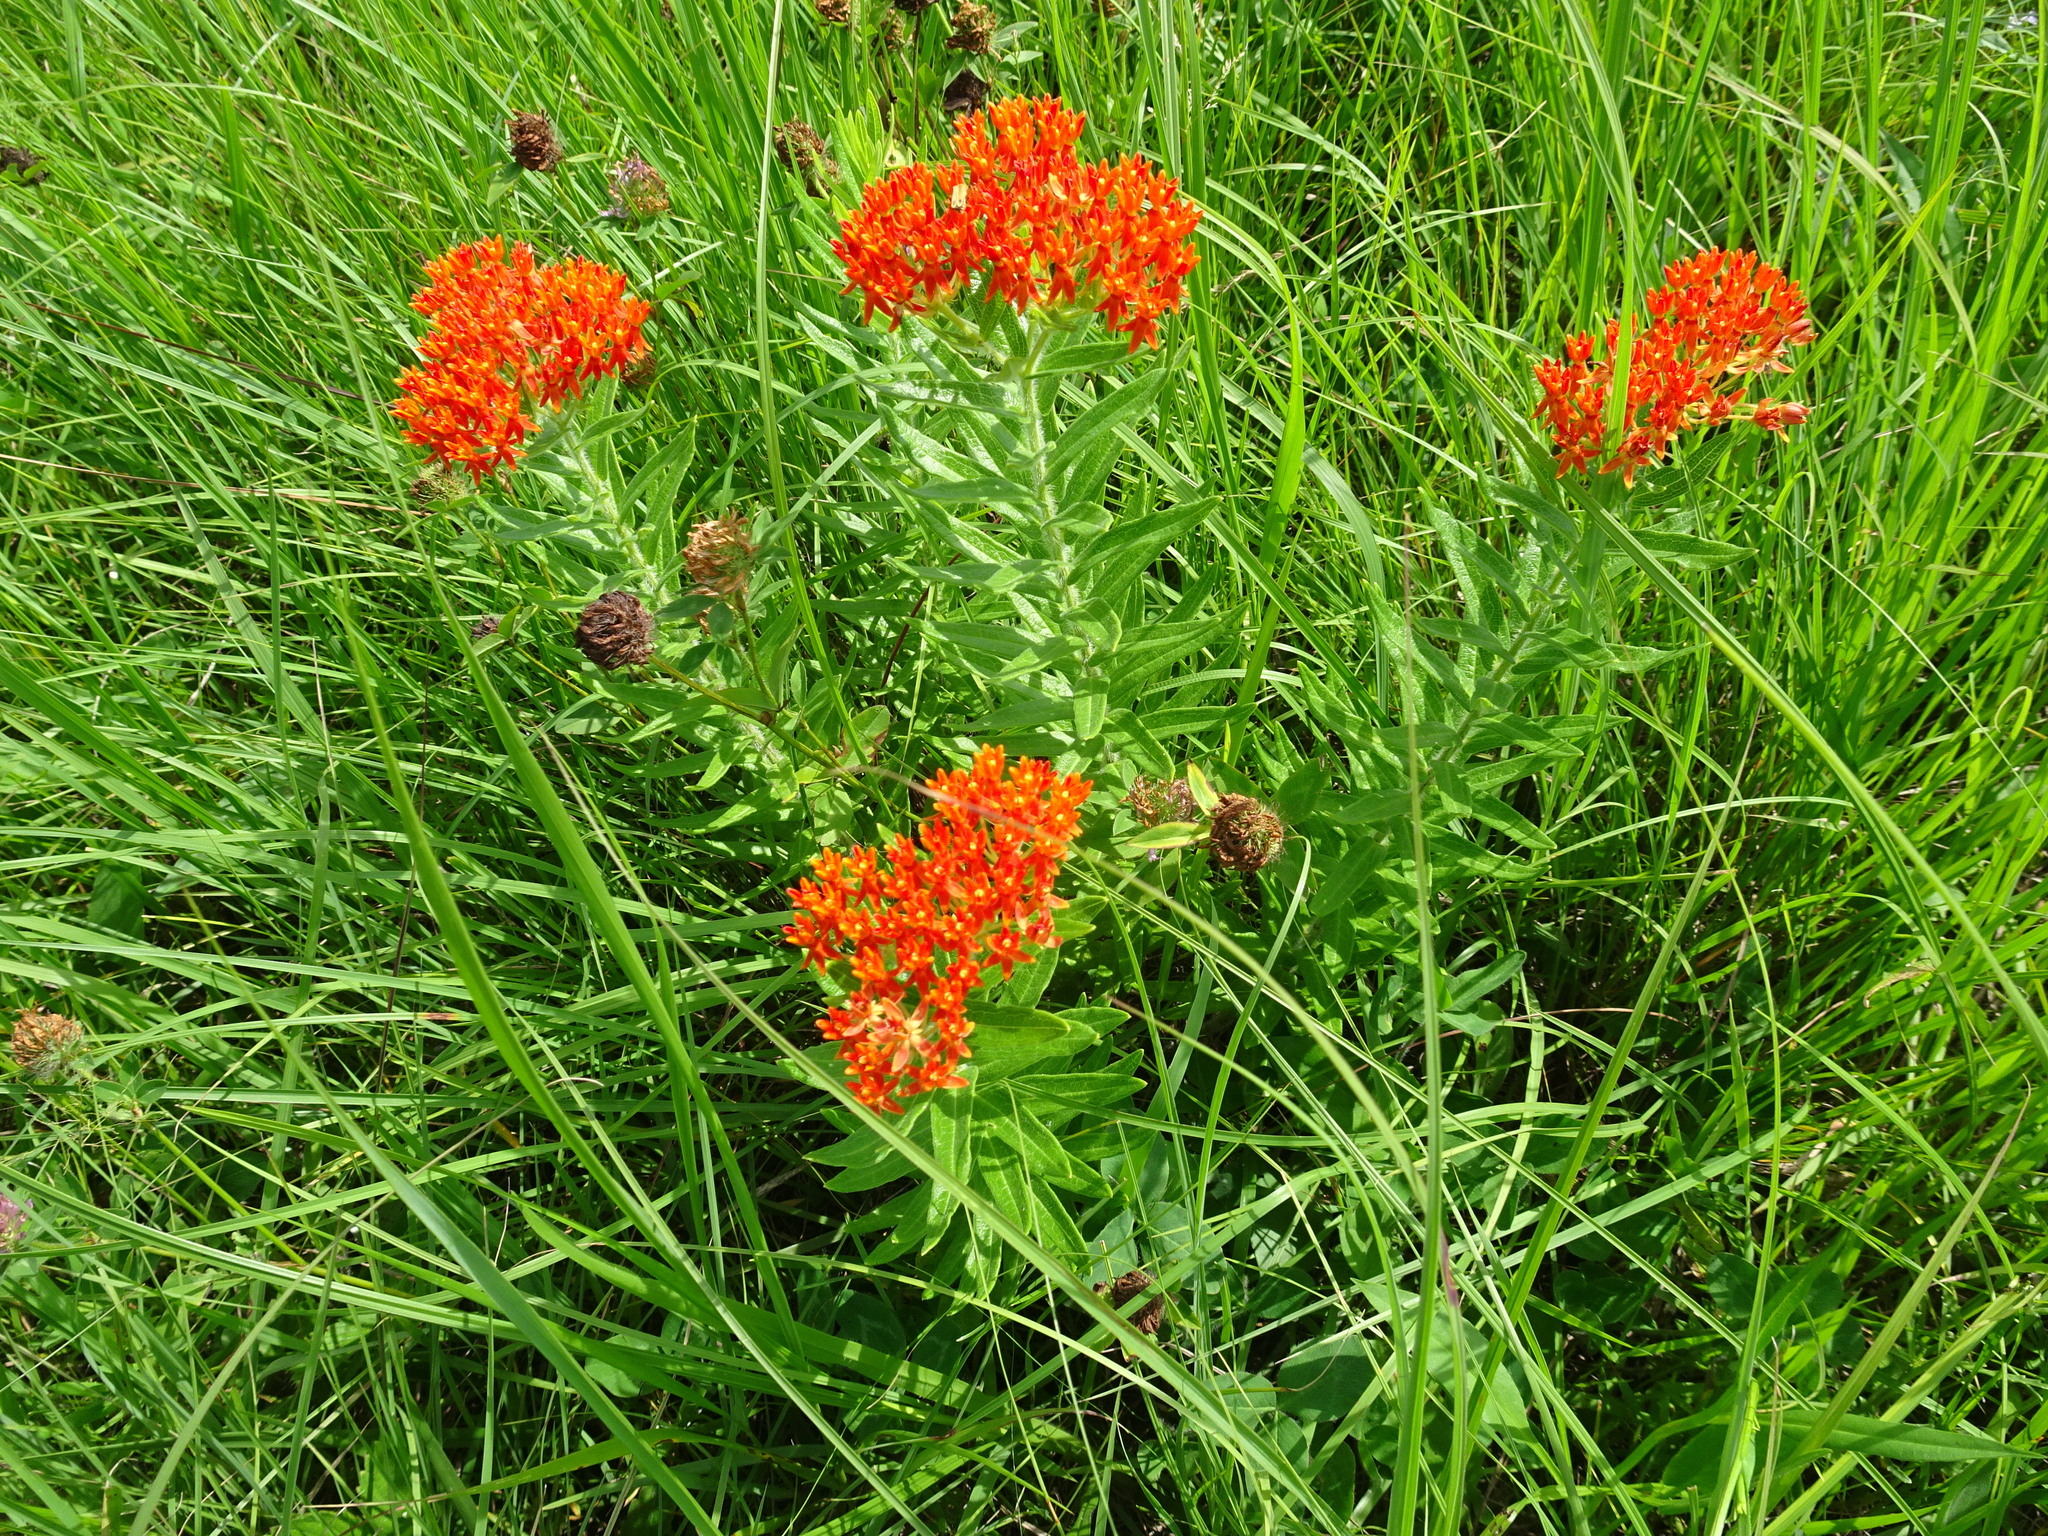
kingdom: Plantae
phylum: Tracheophyta
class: Magnoliopsida
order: Gentianales
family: Apocynaceae
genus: Asclepias
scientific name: Asclepias tuberosa
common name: Butterfly milkweed
